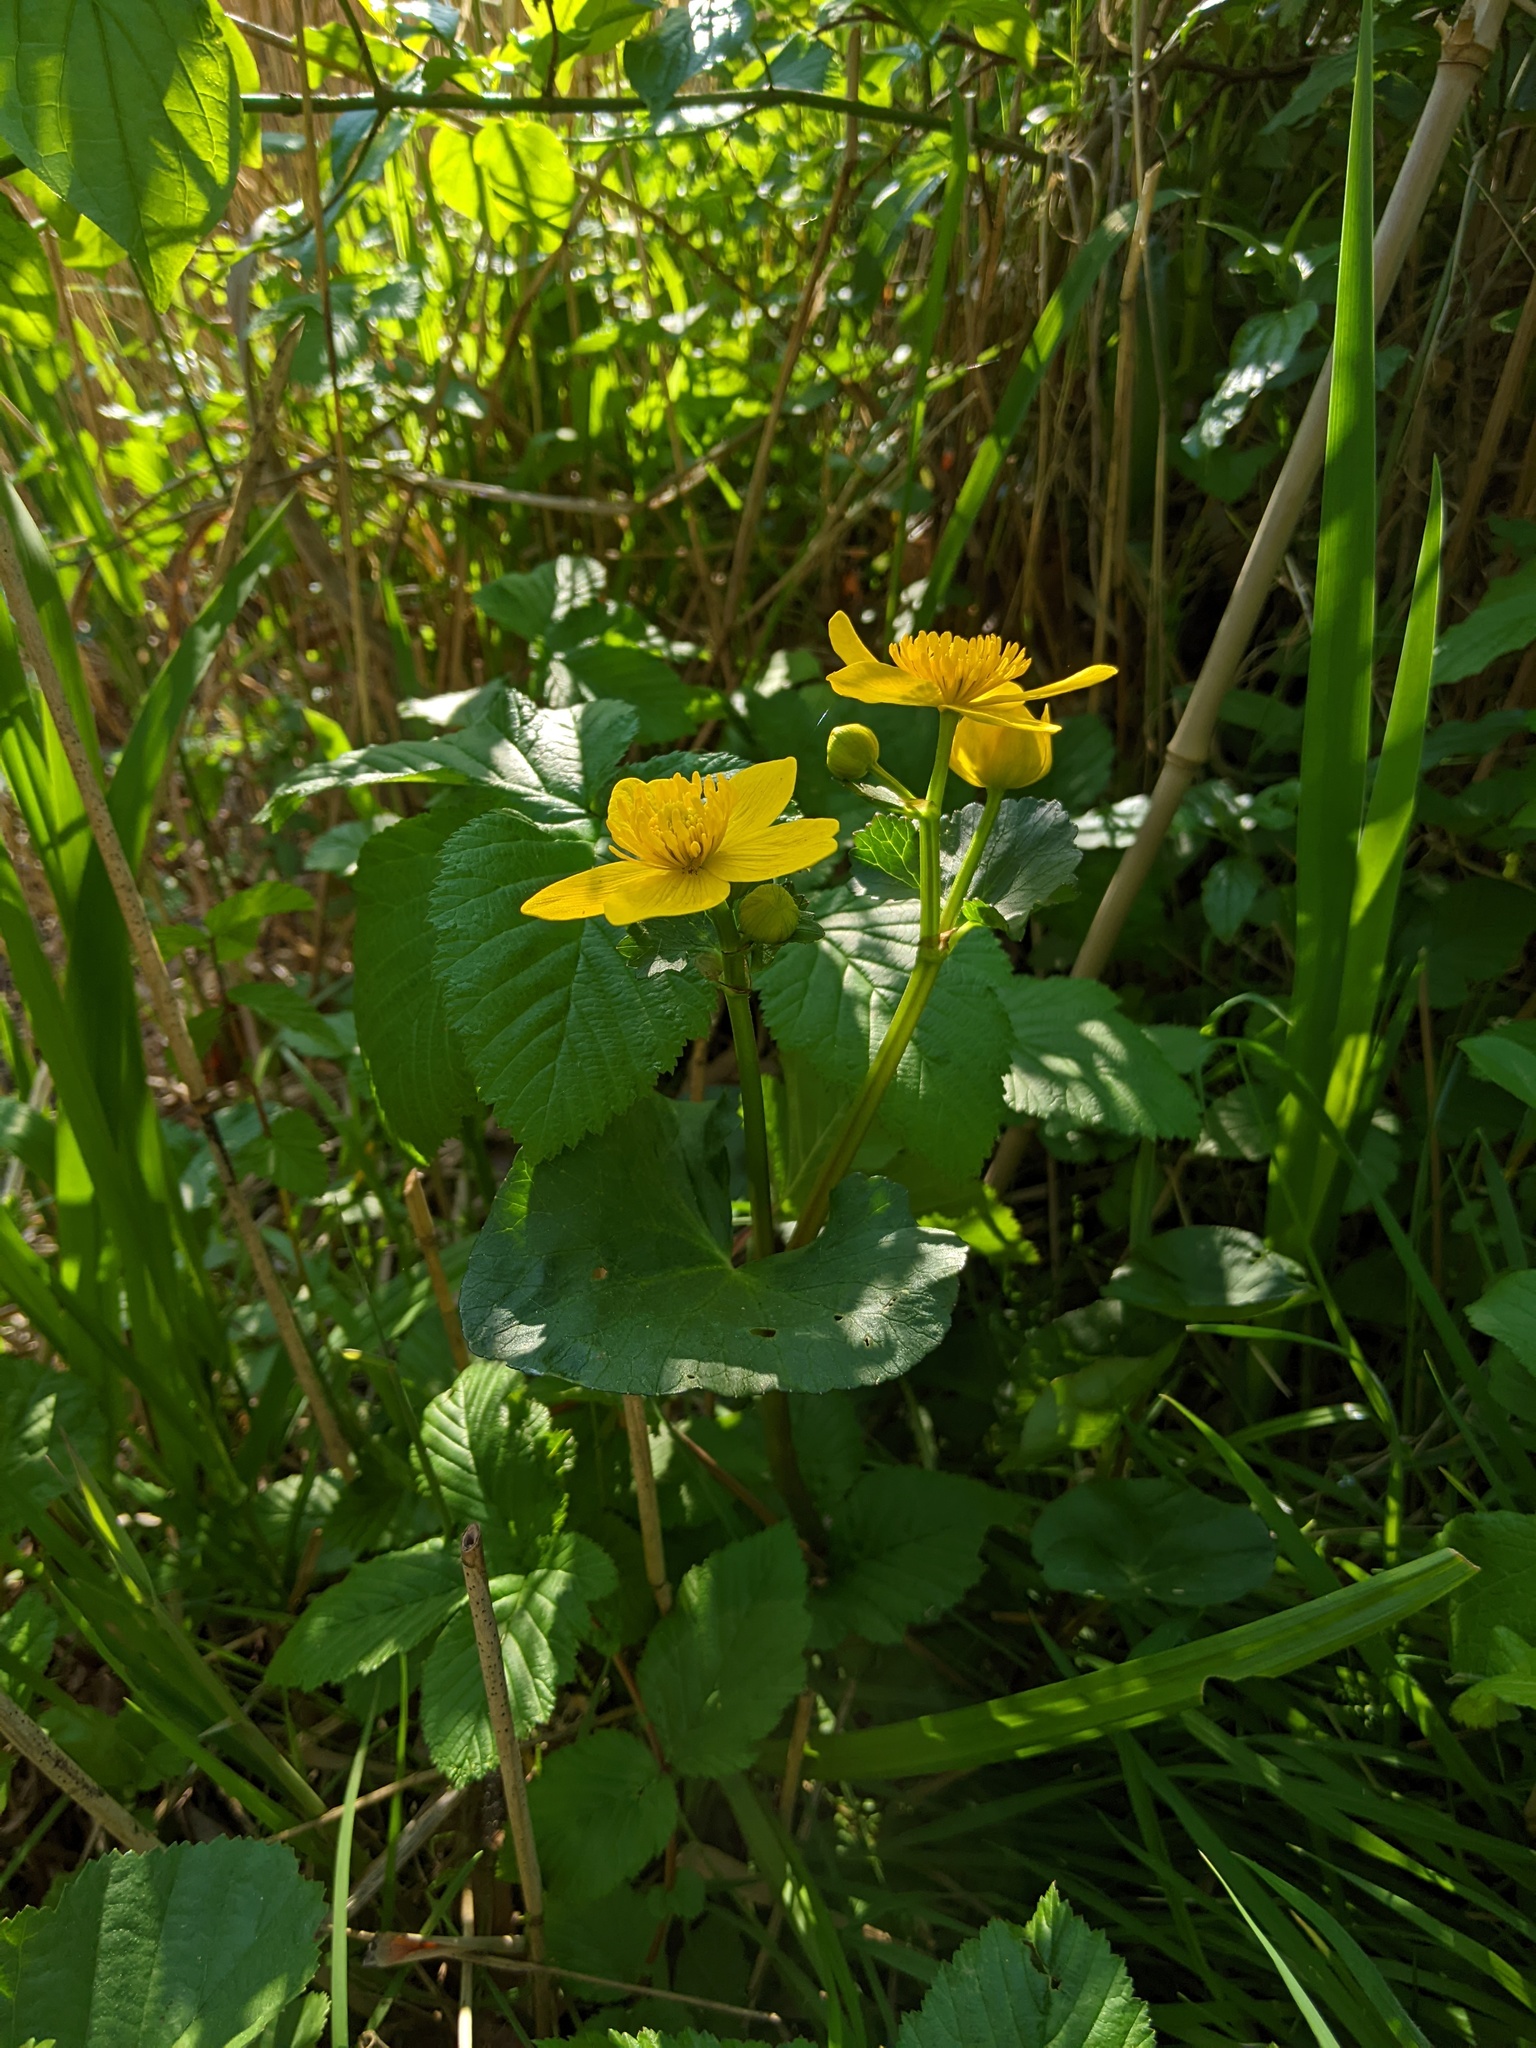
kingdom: Plantae
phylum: Tracheophyta
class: Magnoliopsida
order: Ranunculales
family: Ranunculaceae
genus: Caltha
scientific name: Caltha palustris
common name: Marsh marigold
